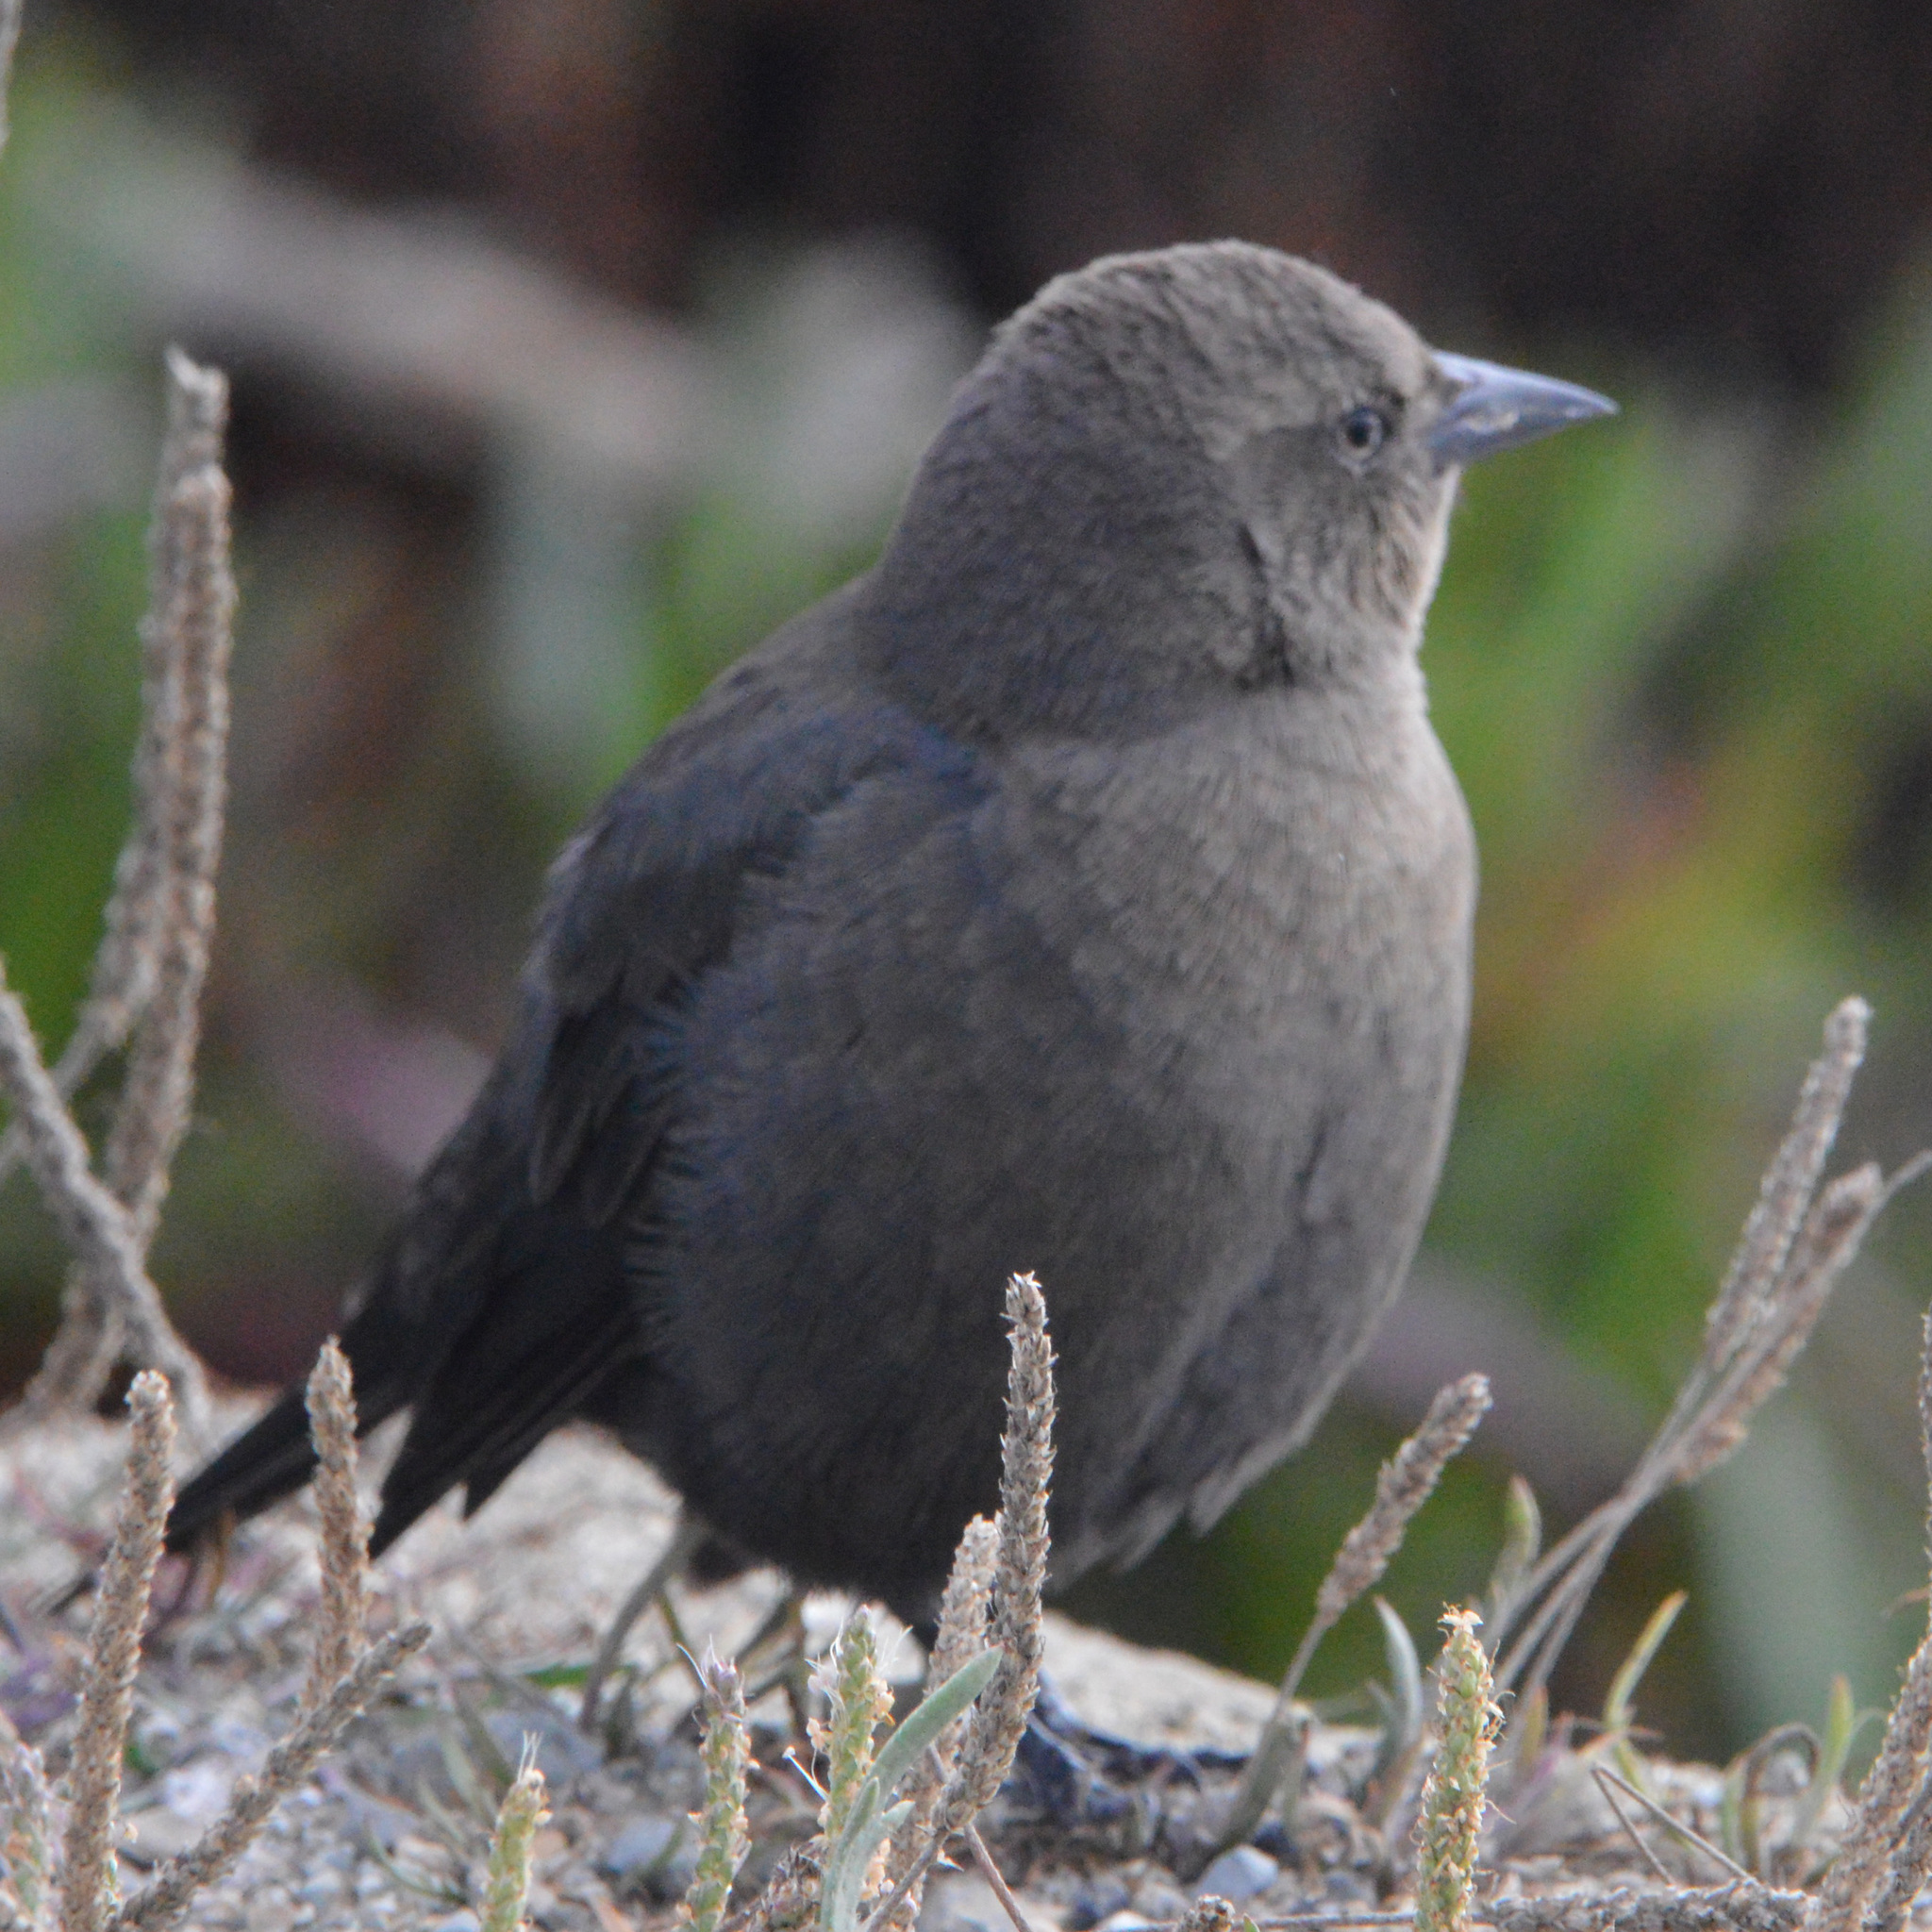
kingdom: Animalia
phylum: Chordata
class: Aves
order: Passeriformes
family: Icteridae
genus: Euphagus
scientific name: Euphagus cyanocephalus
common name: Brewer's blackbird
